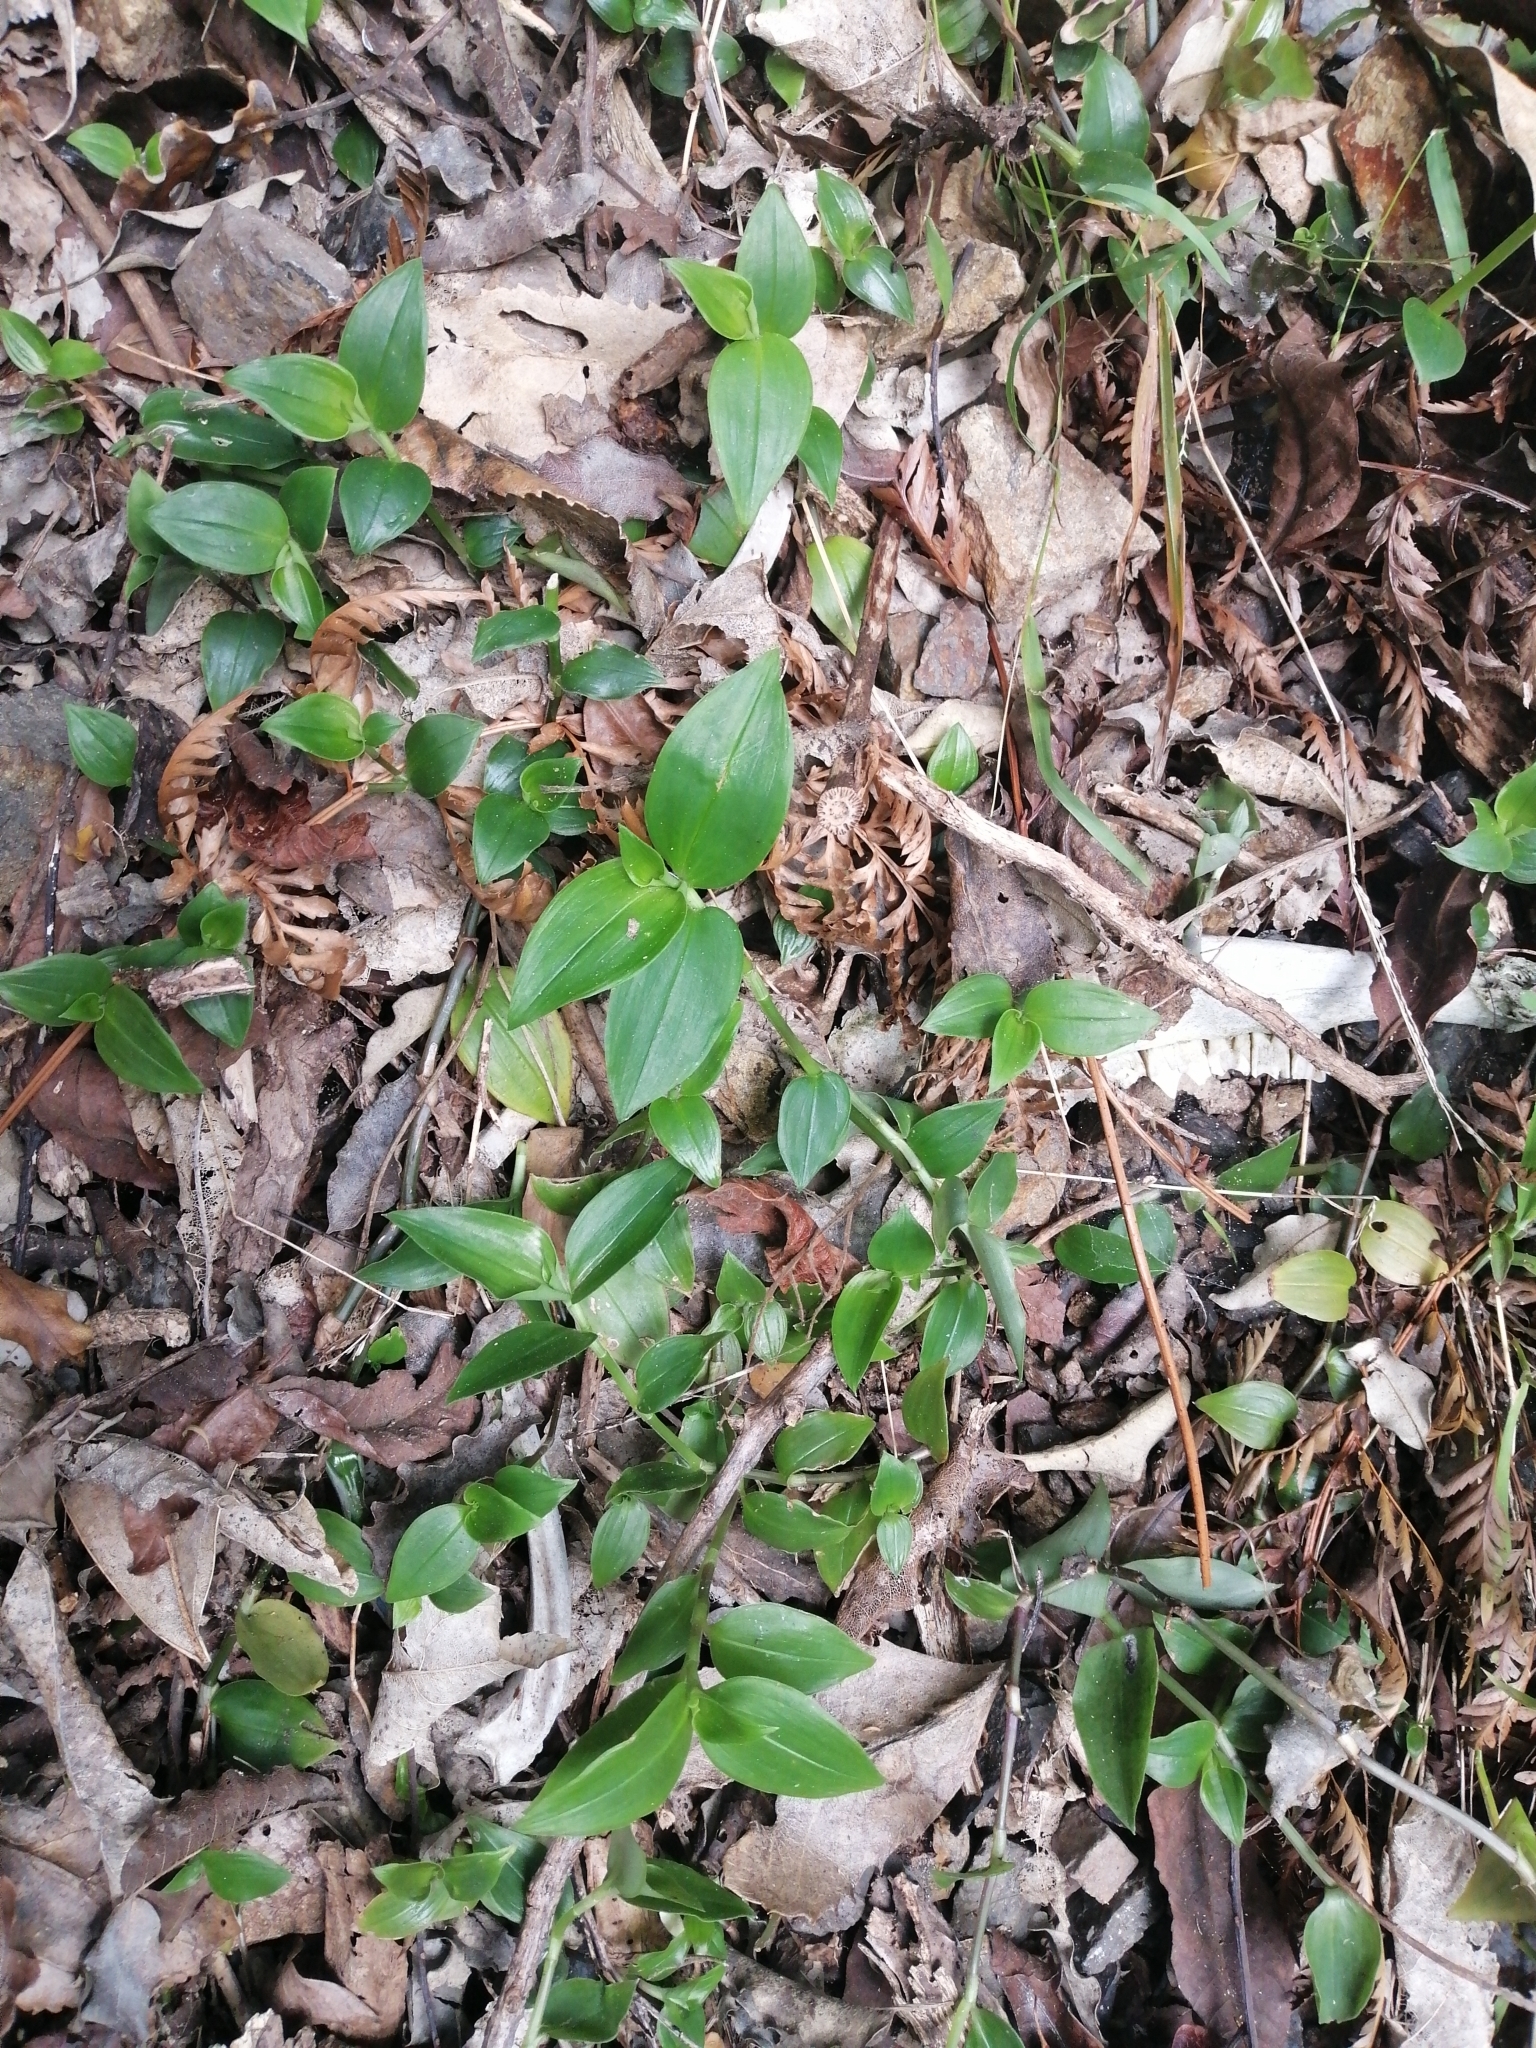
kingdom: Plantae
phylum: Tracheophyta
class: Liliopsida
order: Commelinales
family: Commelinaceae
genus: Tradescantia
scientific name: Tradescantia fluminensis
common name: Wandering-jew
